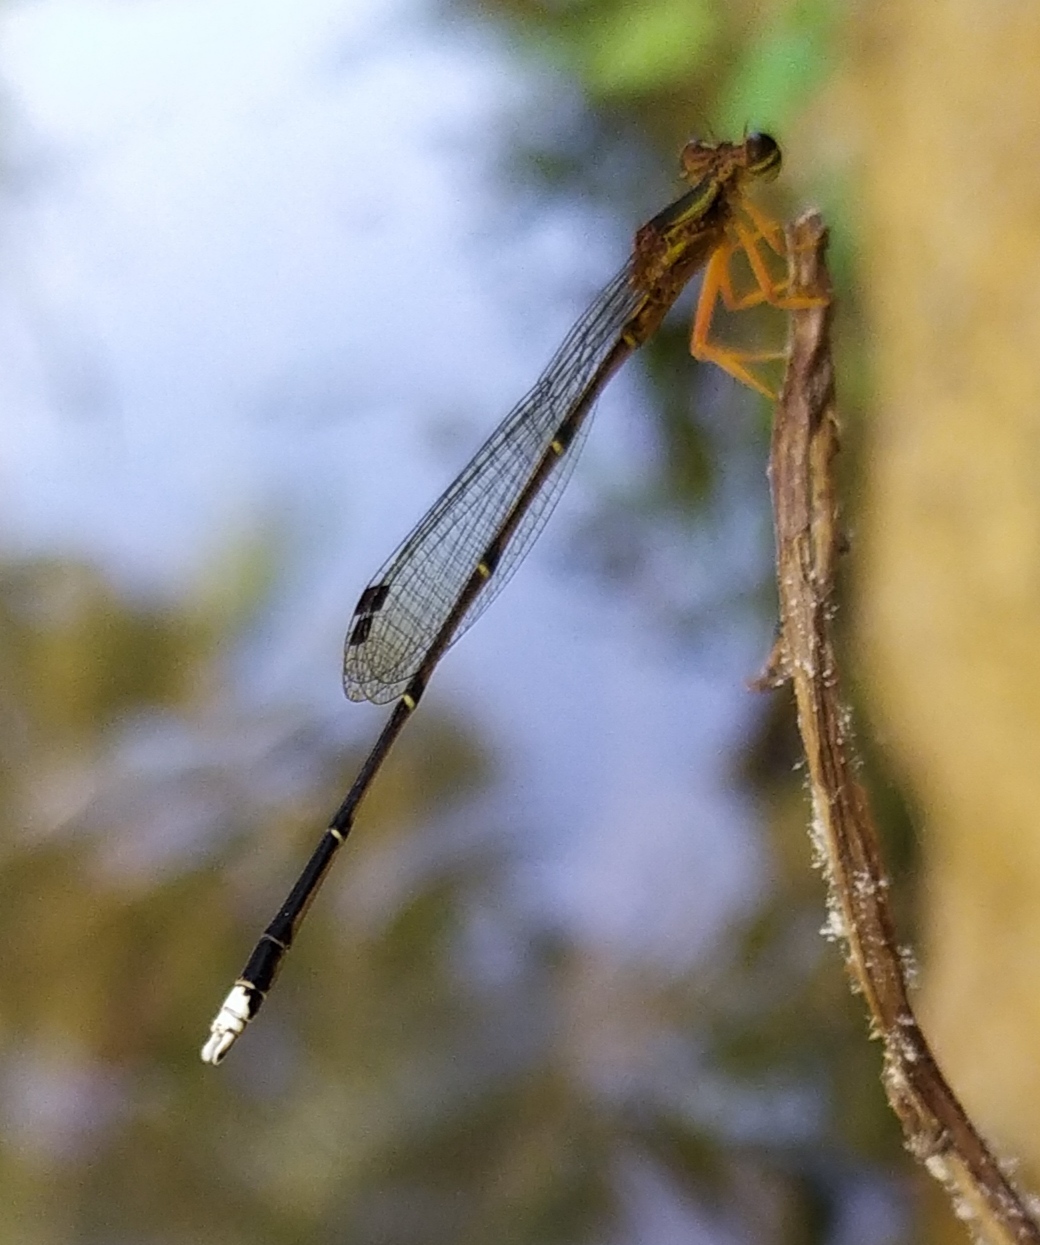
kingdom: Animalia
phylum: Arthropoda
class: Insecta
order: Odonata
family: Platycnemididae
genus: Copera
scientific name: Copera marginipes
